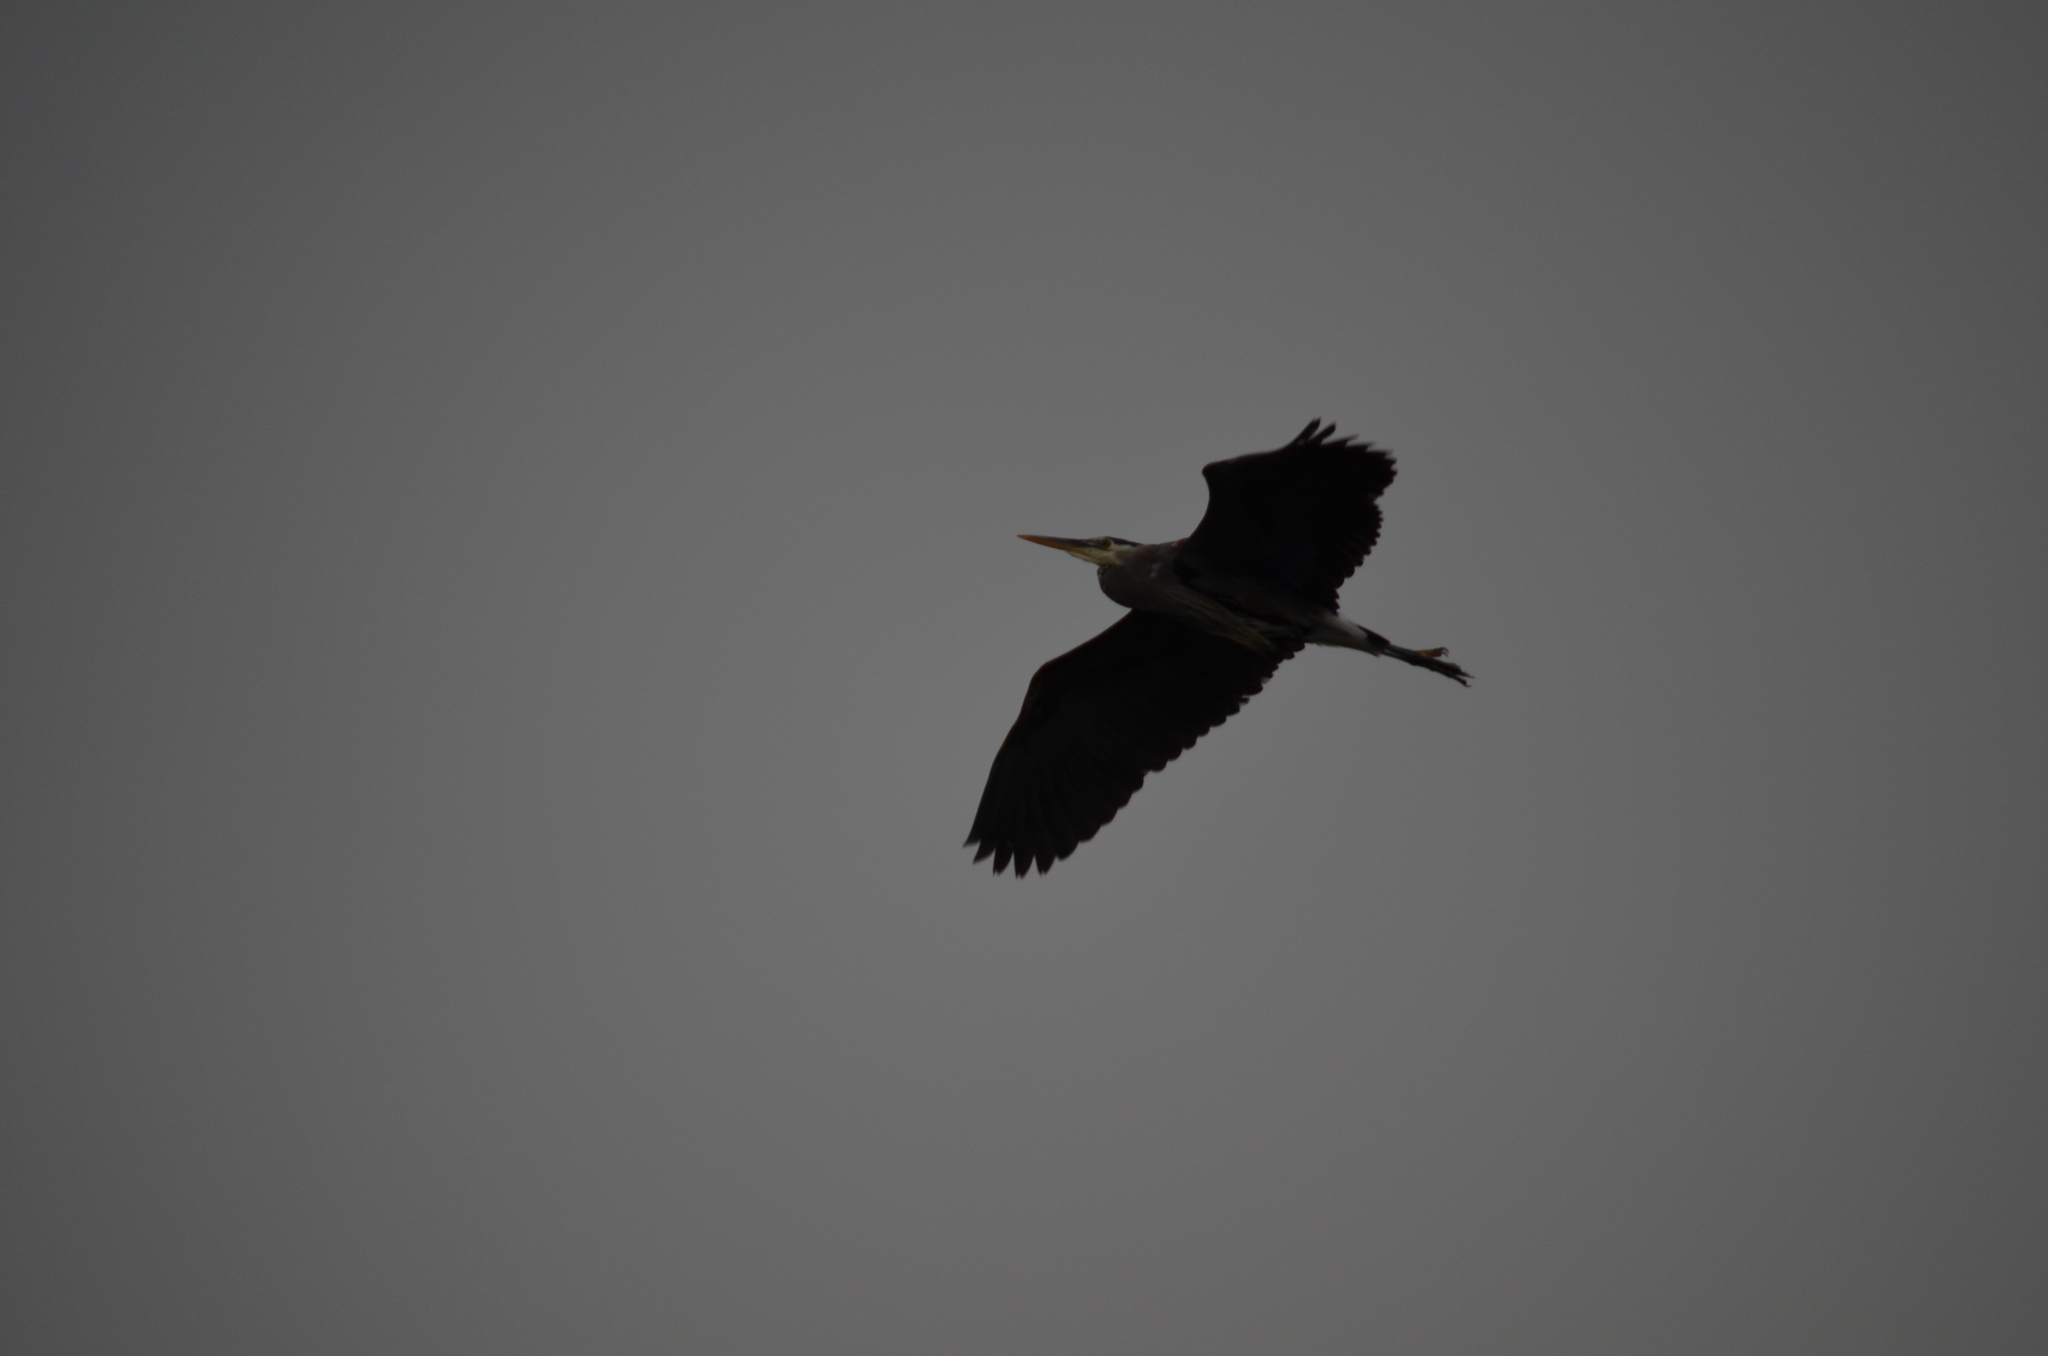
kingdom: Animalia
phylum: Chordata
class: Aves
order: Pelecaniformes
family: Ardeidae
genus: Ardea
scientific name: Ardea herodias
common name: Great blue heron
